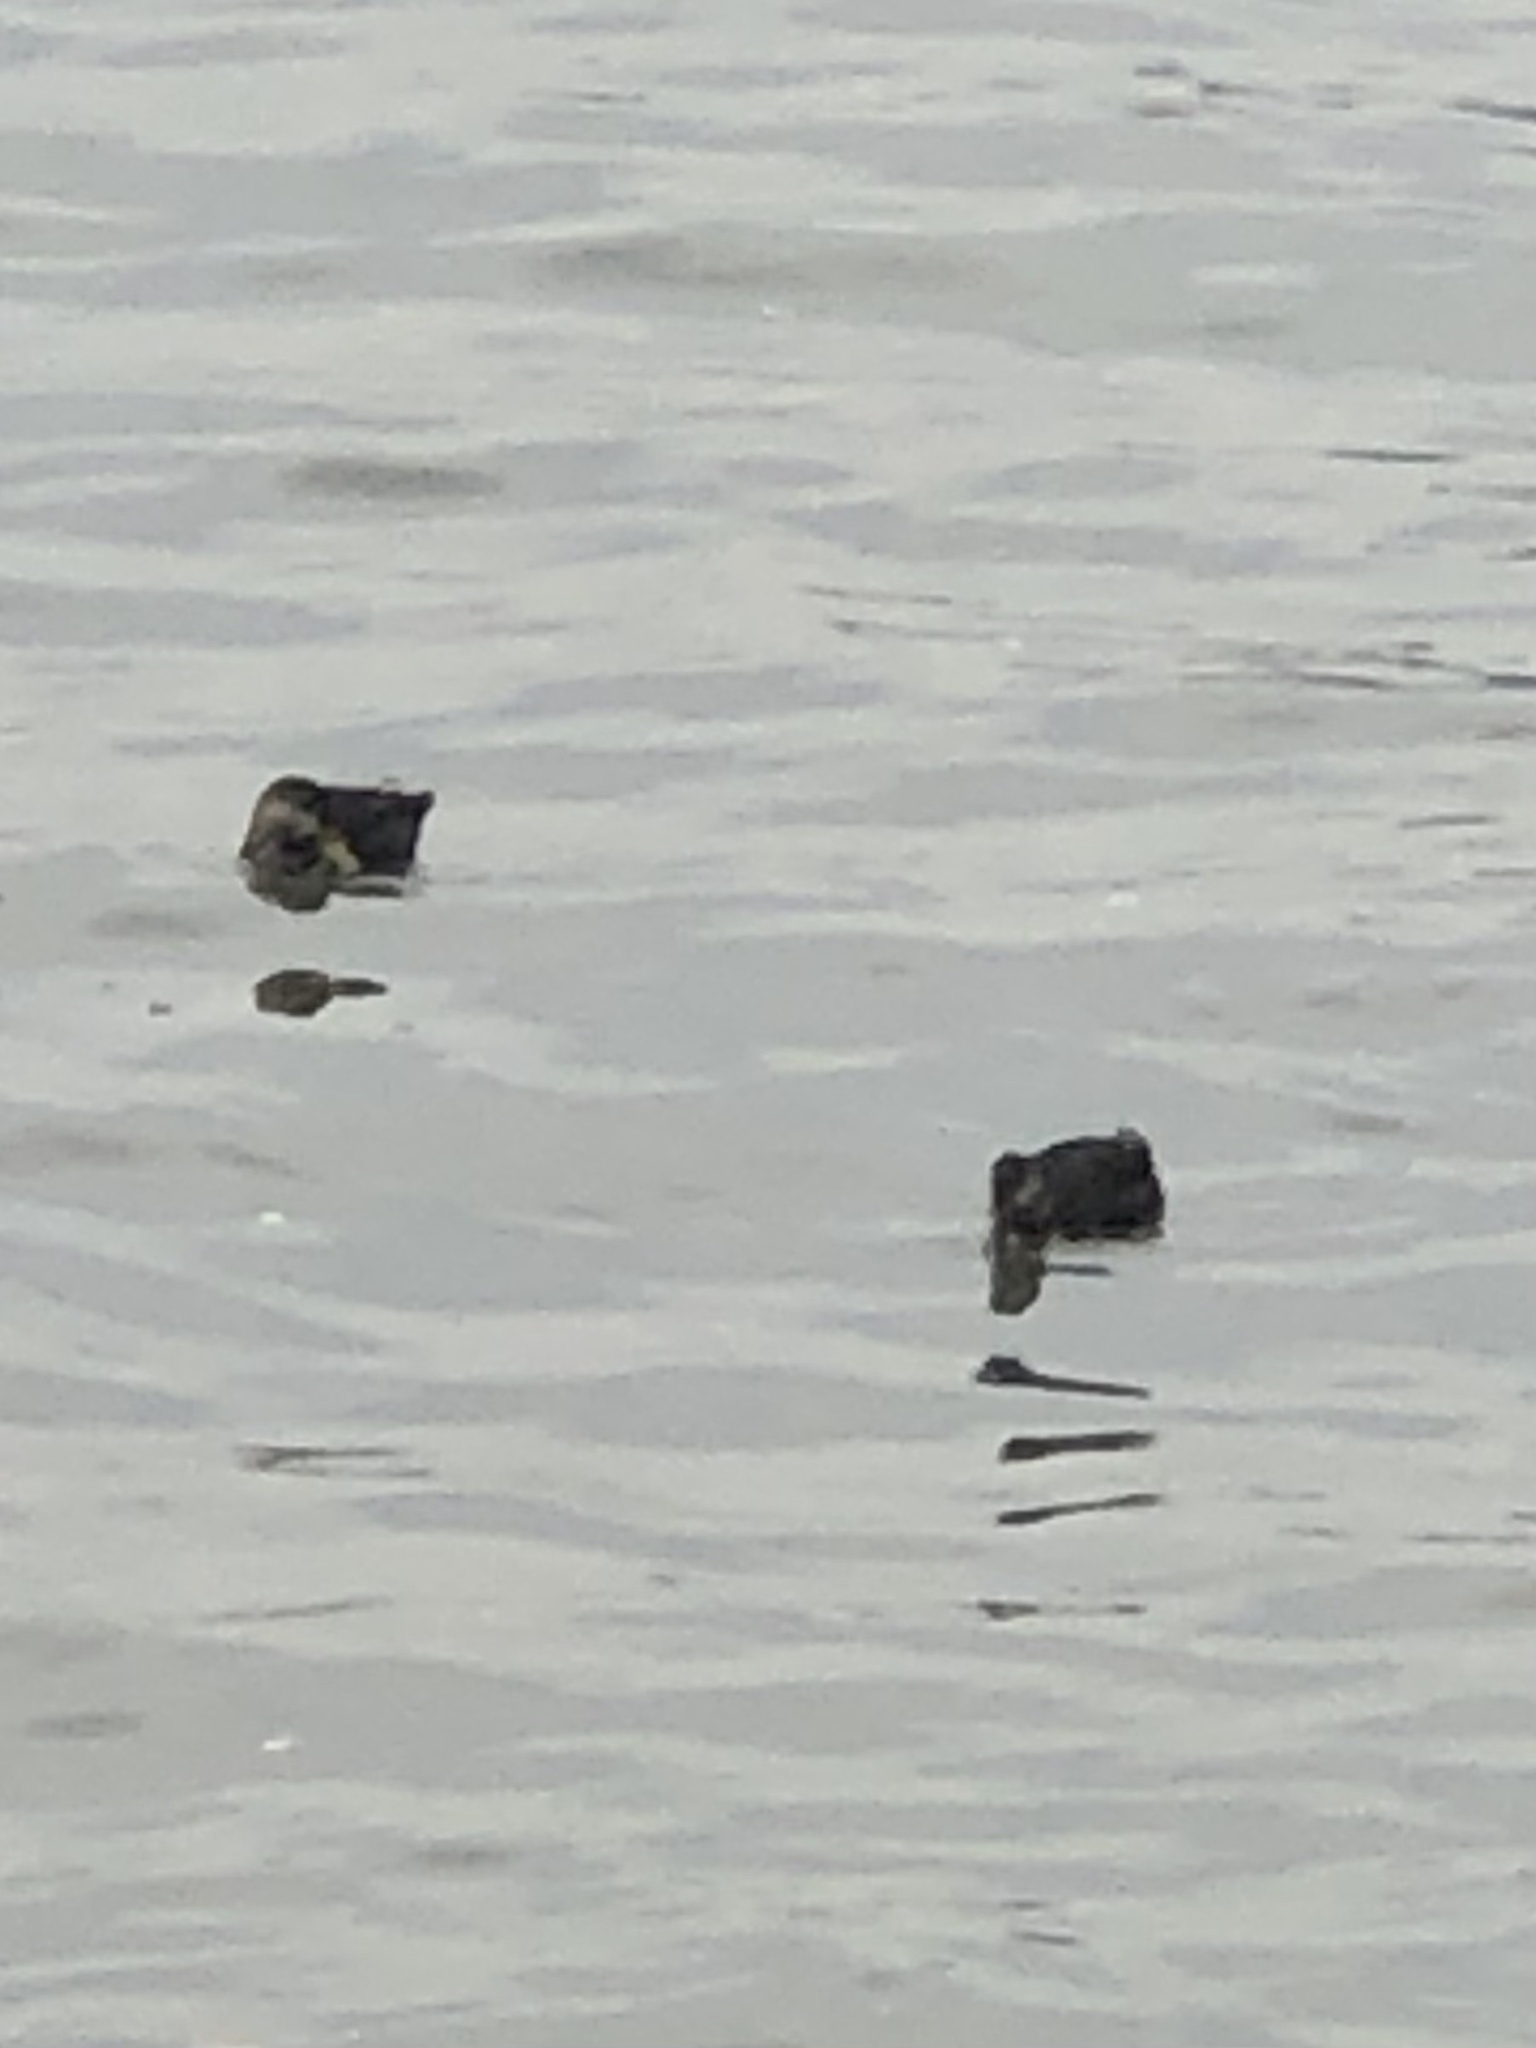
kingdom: Animalia
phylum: Chordata
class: Aves
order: Anseriformes
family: Anatidae
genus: Anas
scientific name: Anas rubripes
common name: American black duck
